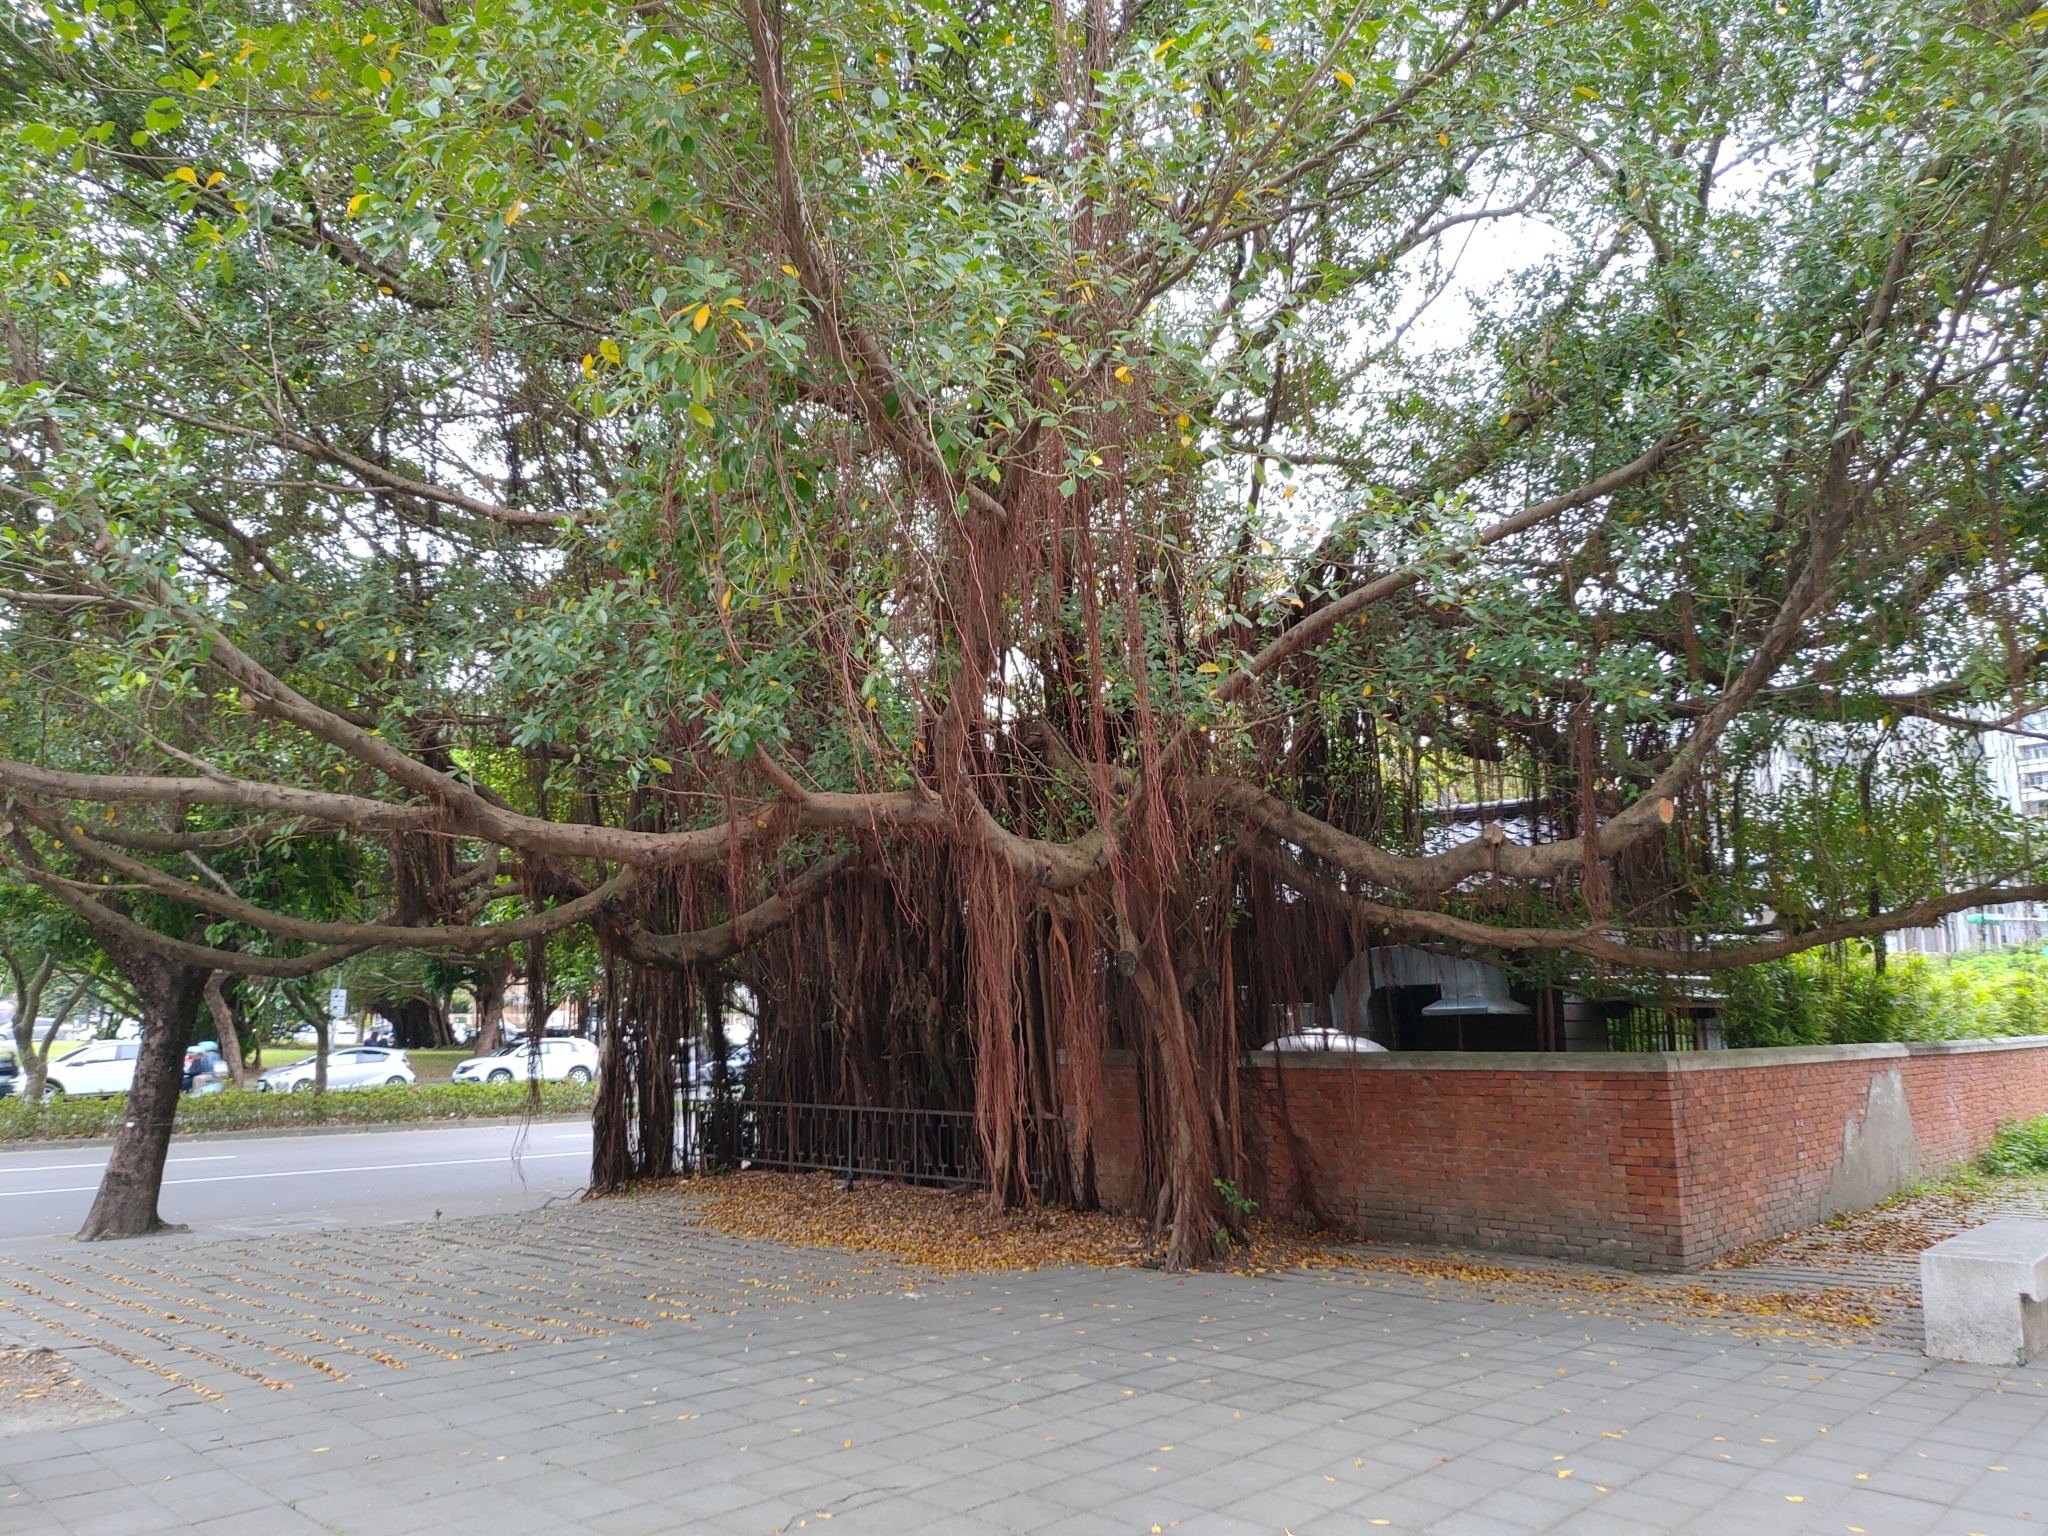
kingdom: Plantae
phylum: Tracheophyta
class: Magnoliopsida
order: Rosales
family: Moraceae
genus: Ficus
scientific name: Ficus microcarpa
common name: Chinese banyan
